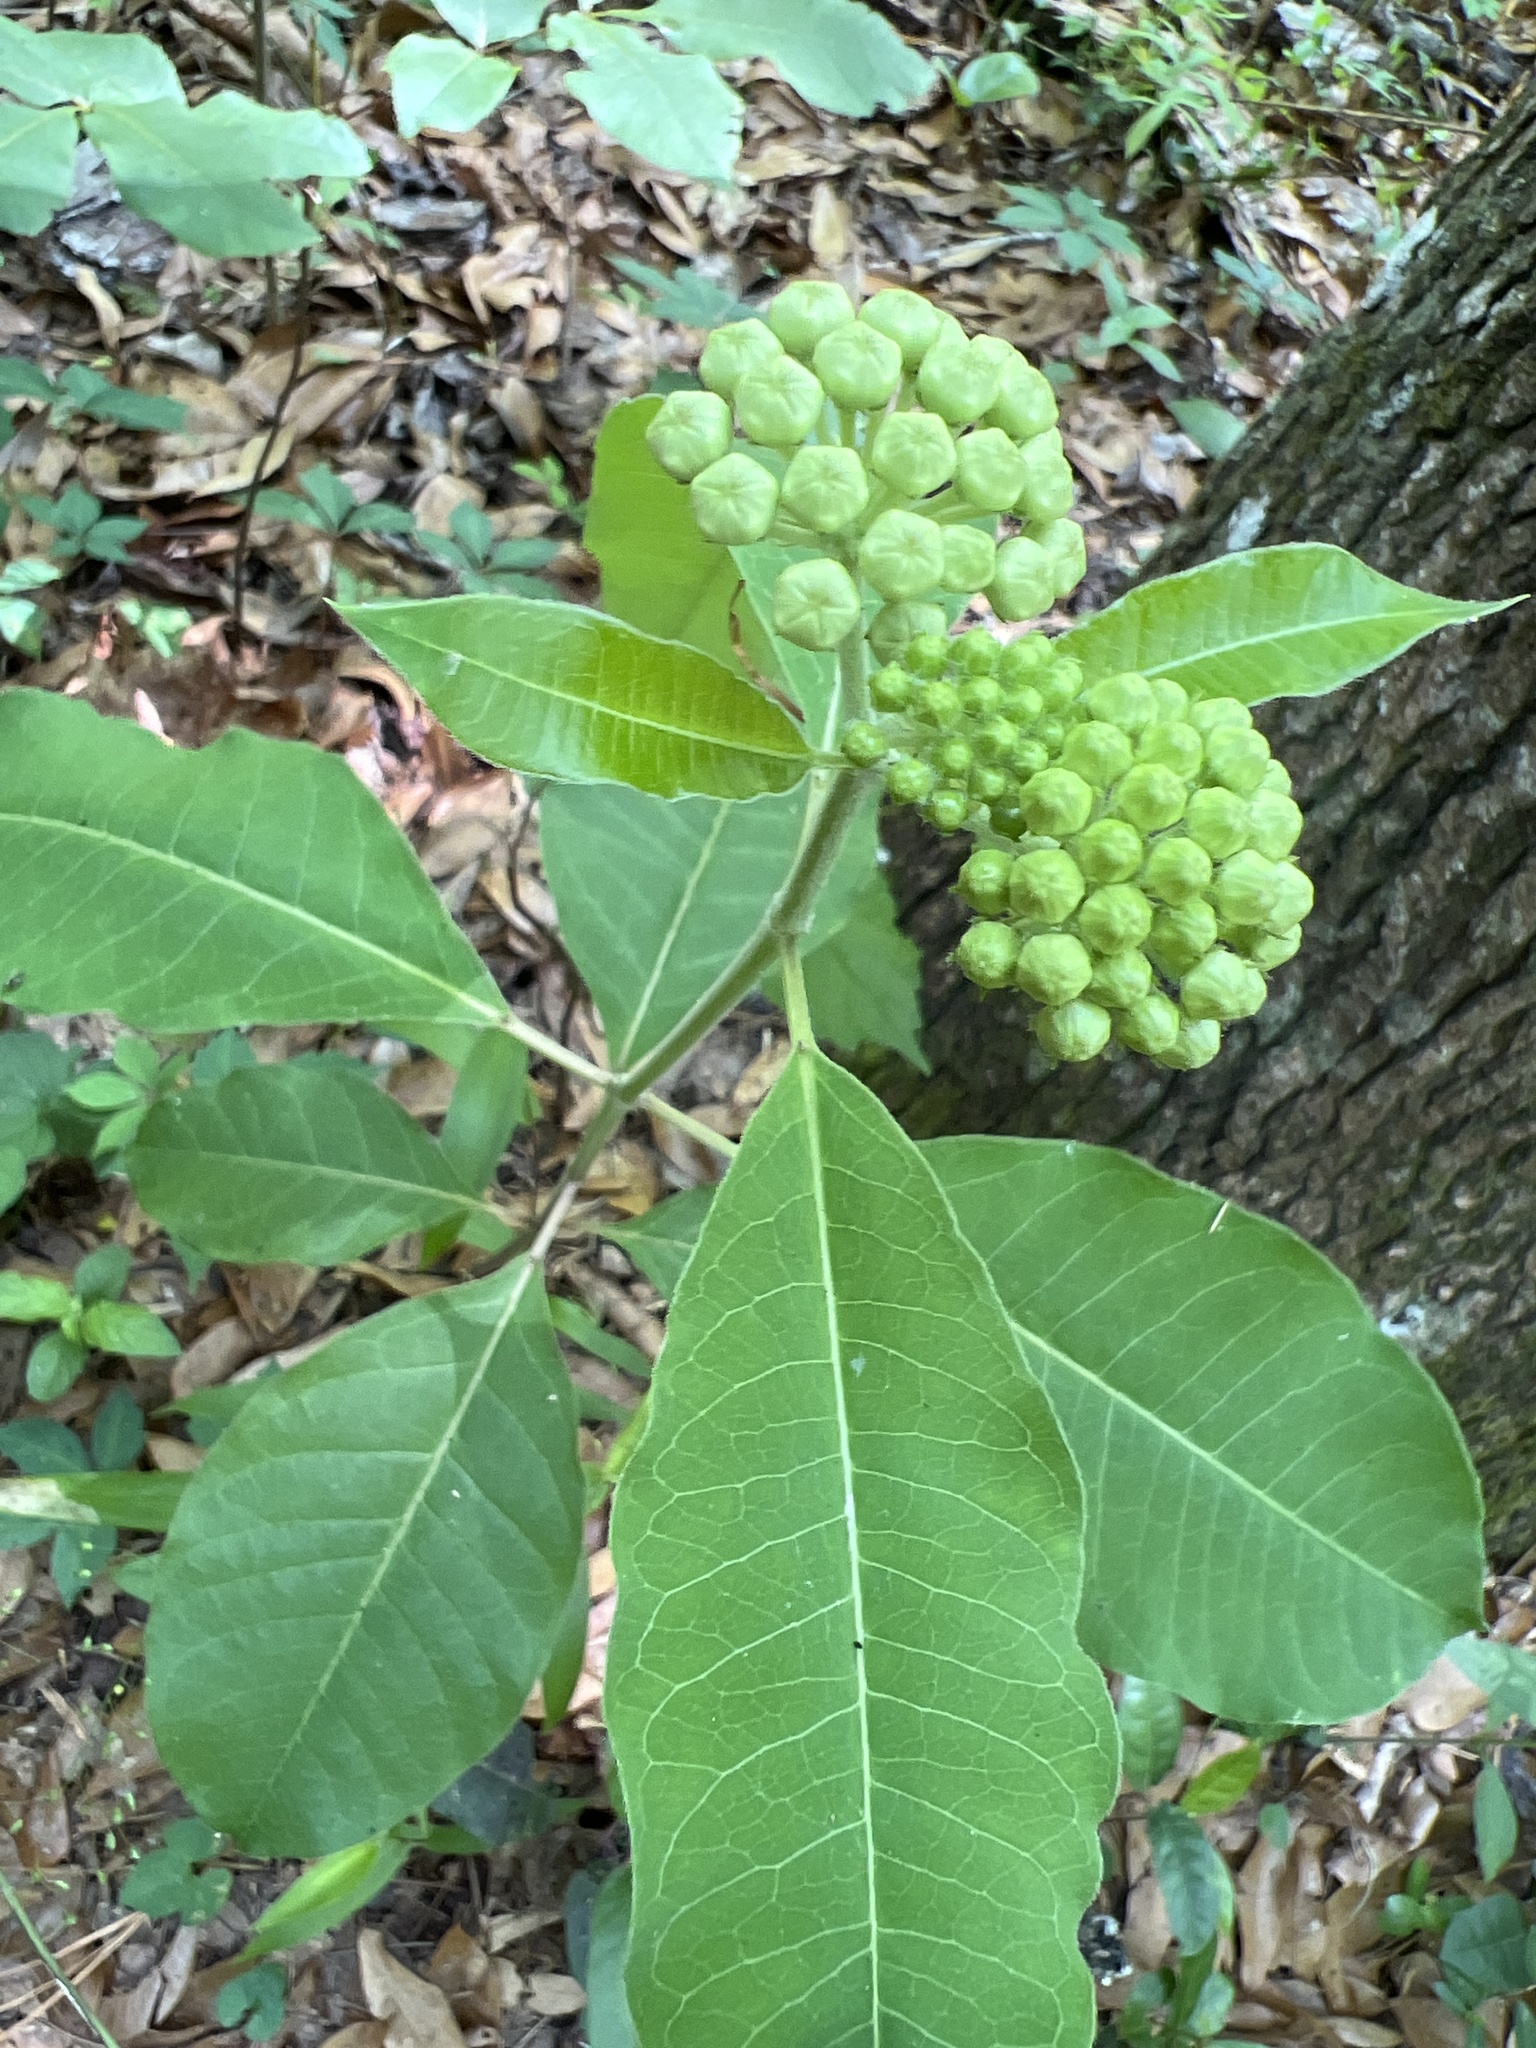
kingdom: Plantae
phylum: Tracheophyta
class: Magnoliopsida
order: Gentianales
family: Apocynaceae
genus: Asclepias
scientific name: Asclepias variegata
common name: Variegated milkweed
